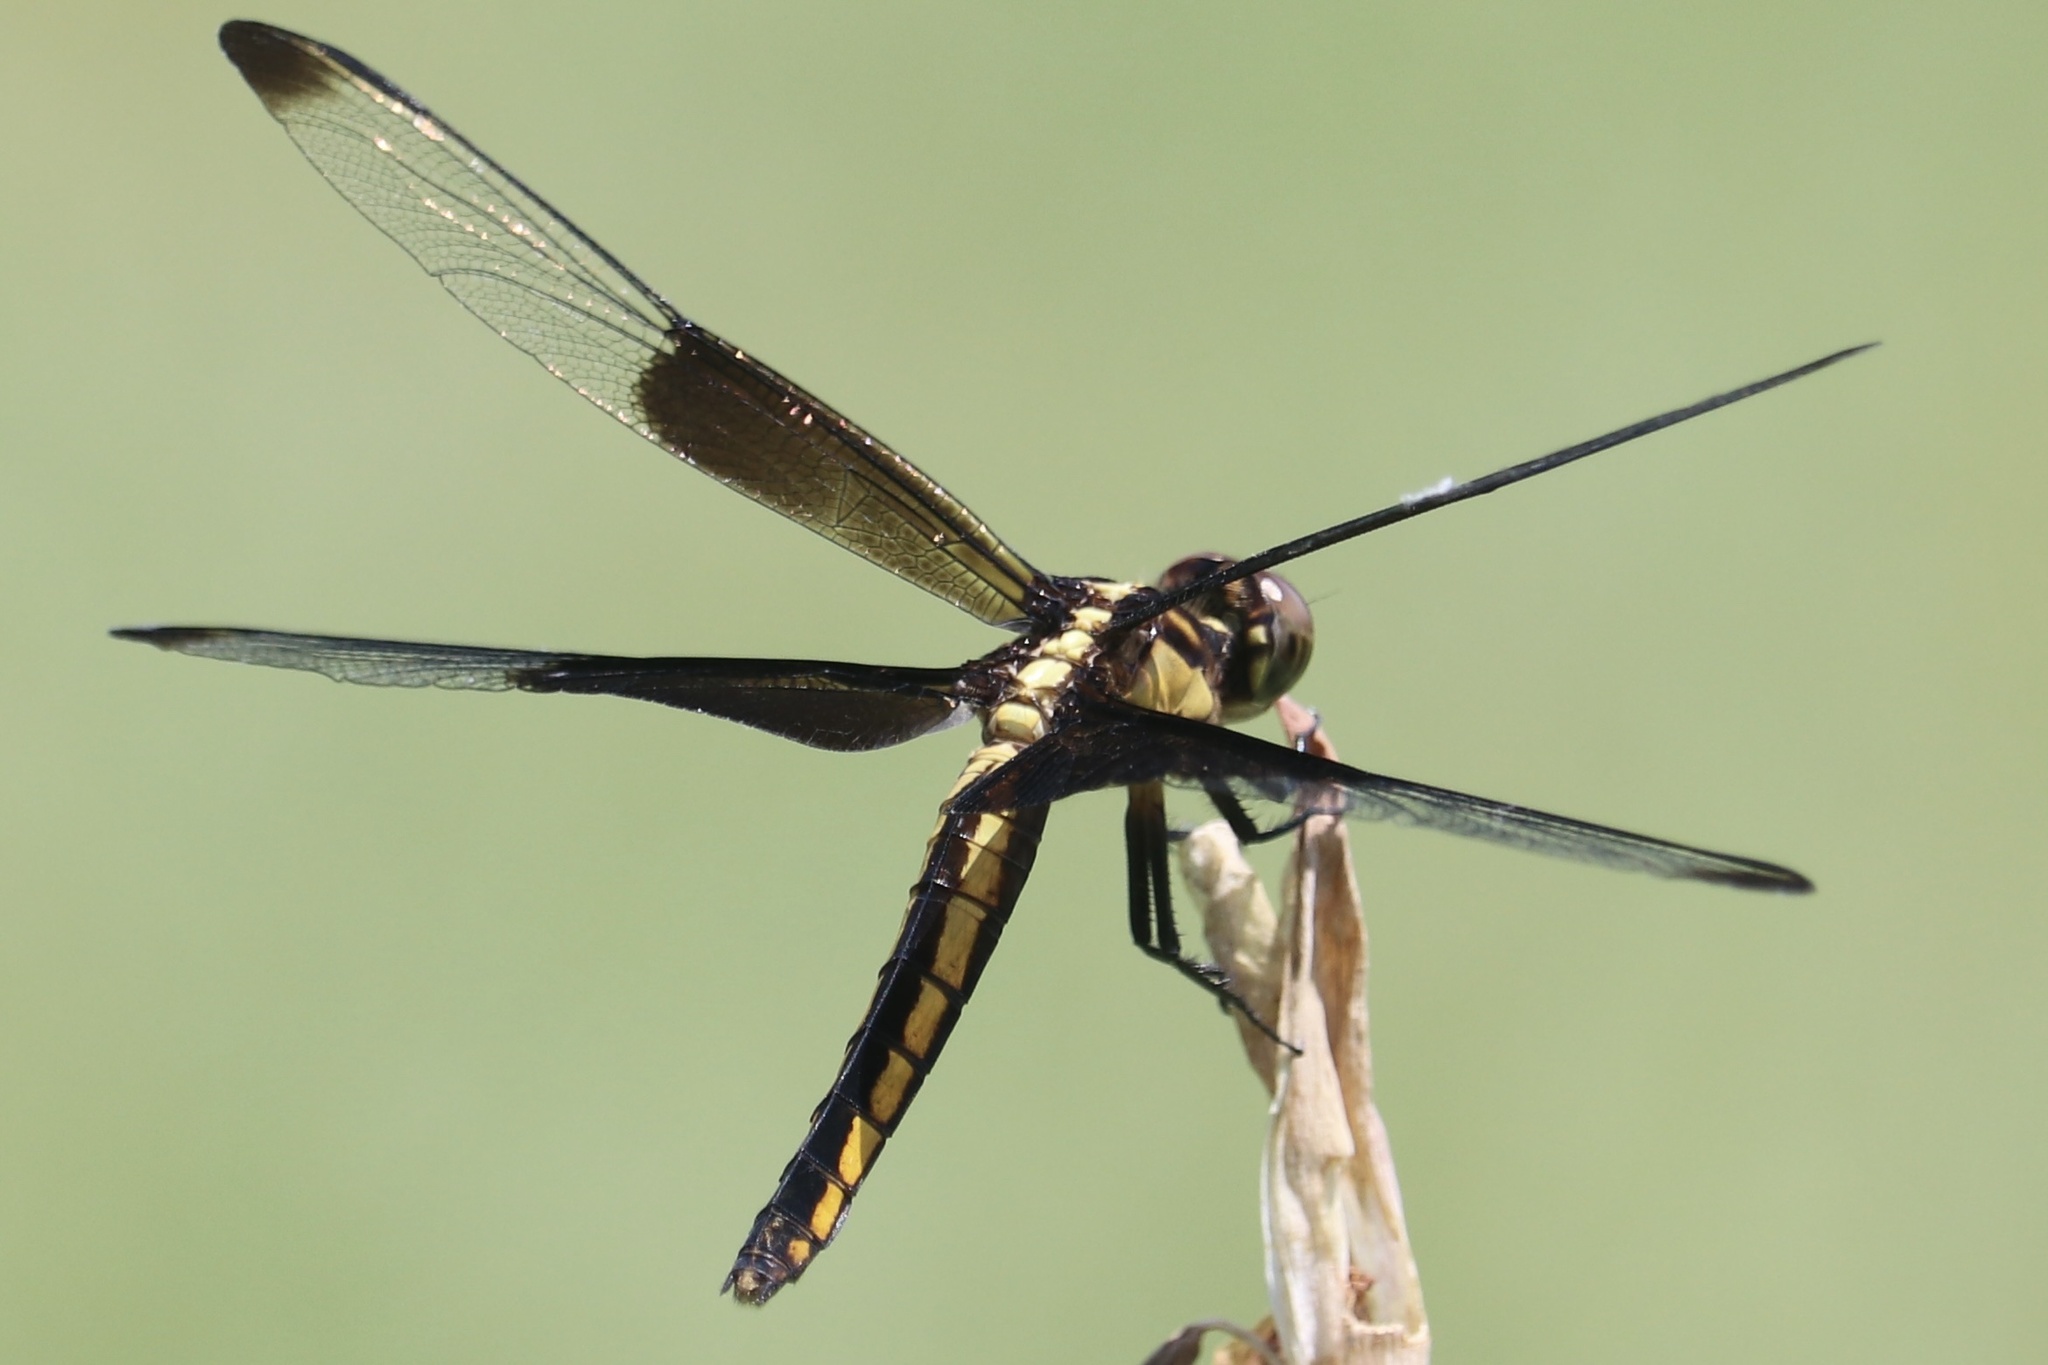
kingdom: Animalia
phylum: Arthropoda
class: Insecta
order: Odonata
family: Libellulidae
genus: Libellula
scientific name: Libellula luctuosa
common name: Widow skimmer
